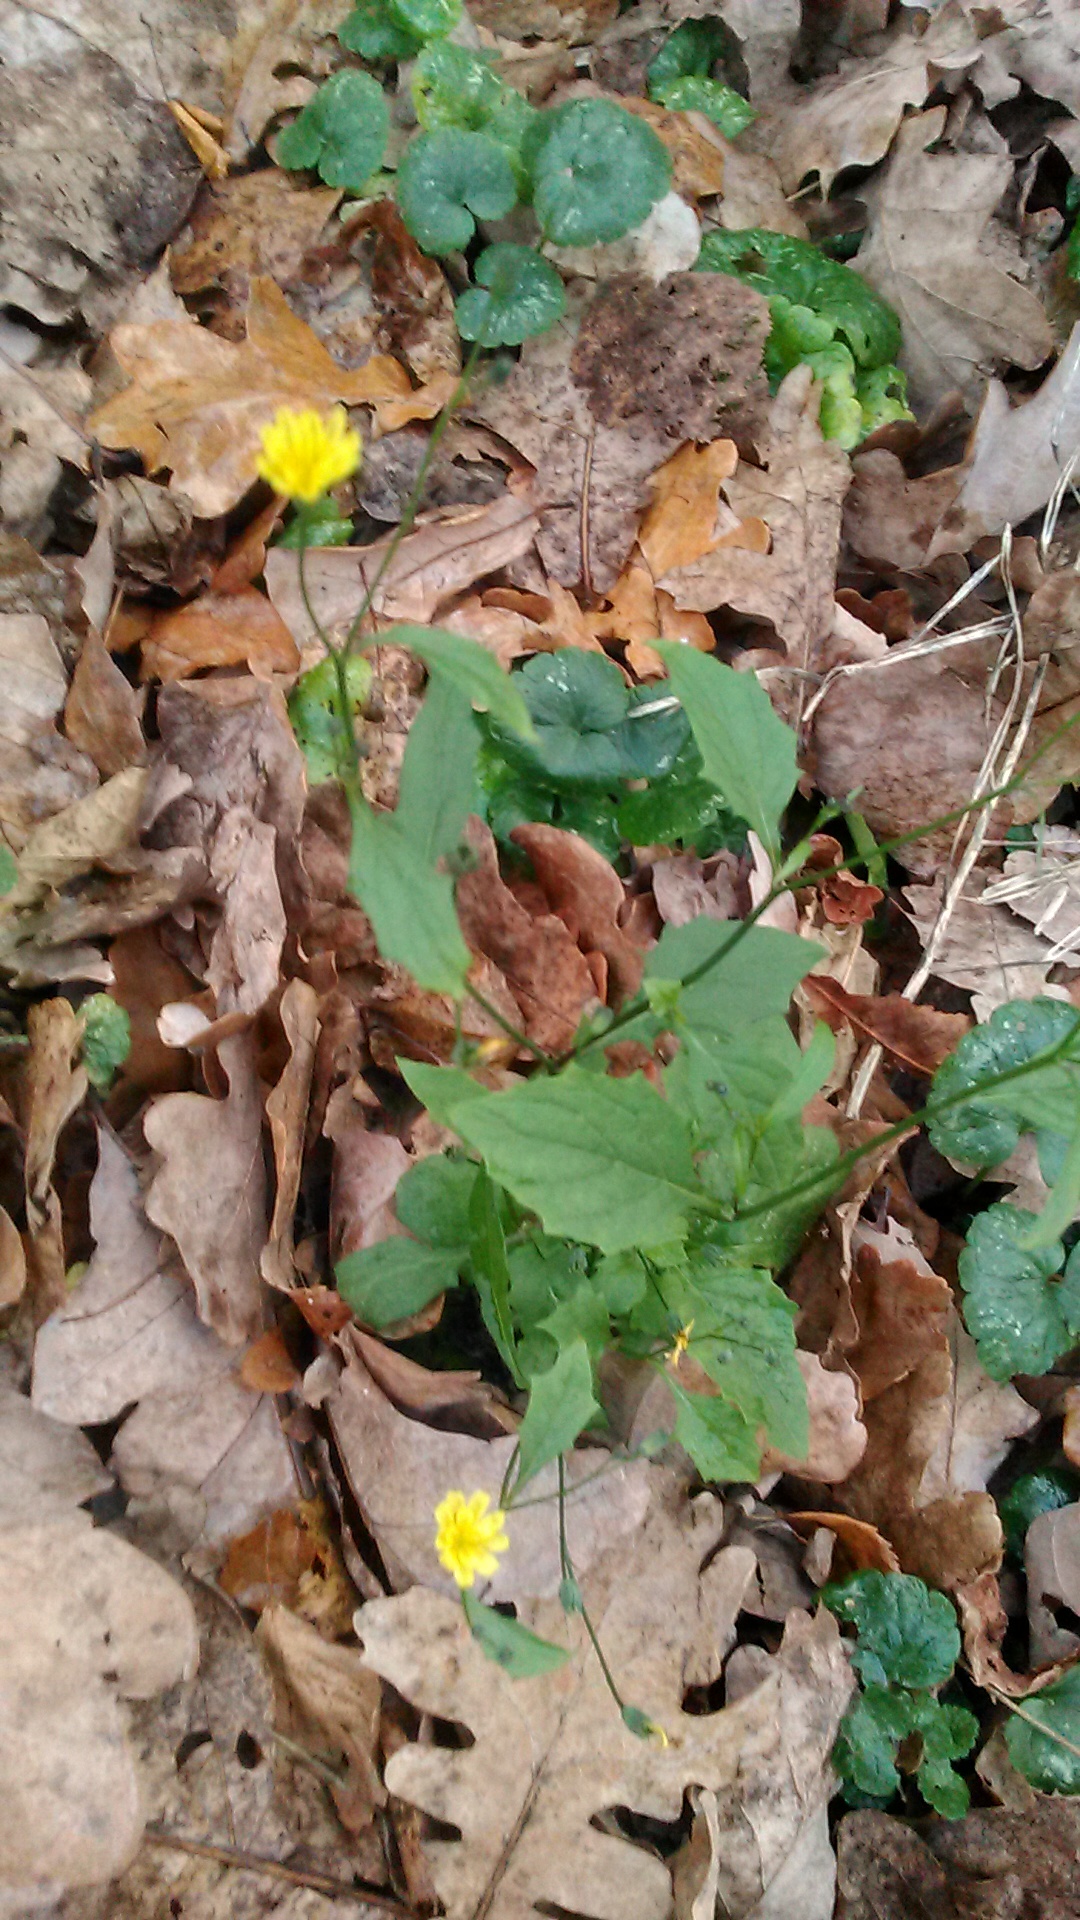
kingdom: Plantae
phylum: Tracheophyta
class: Magnoliopsida
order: Asterales
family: Asteraceae
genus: Lapsana
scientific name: Lapsana communis
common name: Nipplewort
